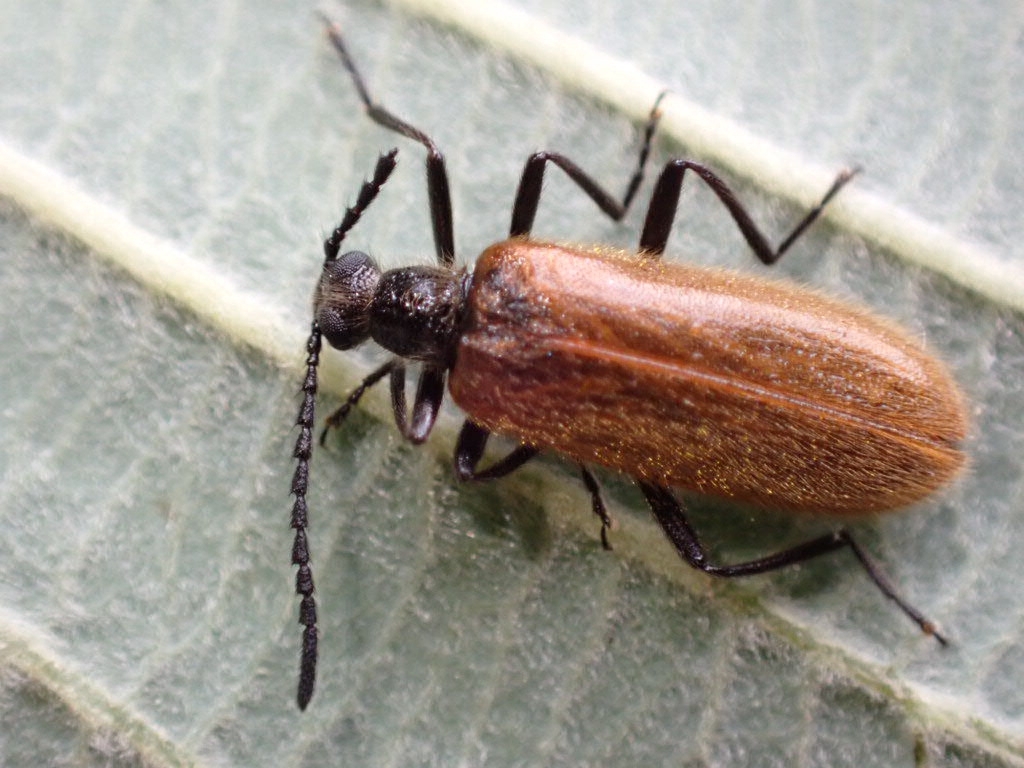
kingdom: Animalia
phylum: Arthropoda
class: Insecta
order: Coleoptera
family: Tenebrionidae
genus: Lagria
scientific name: Lagria hirta
